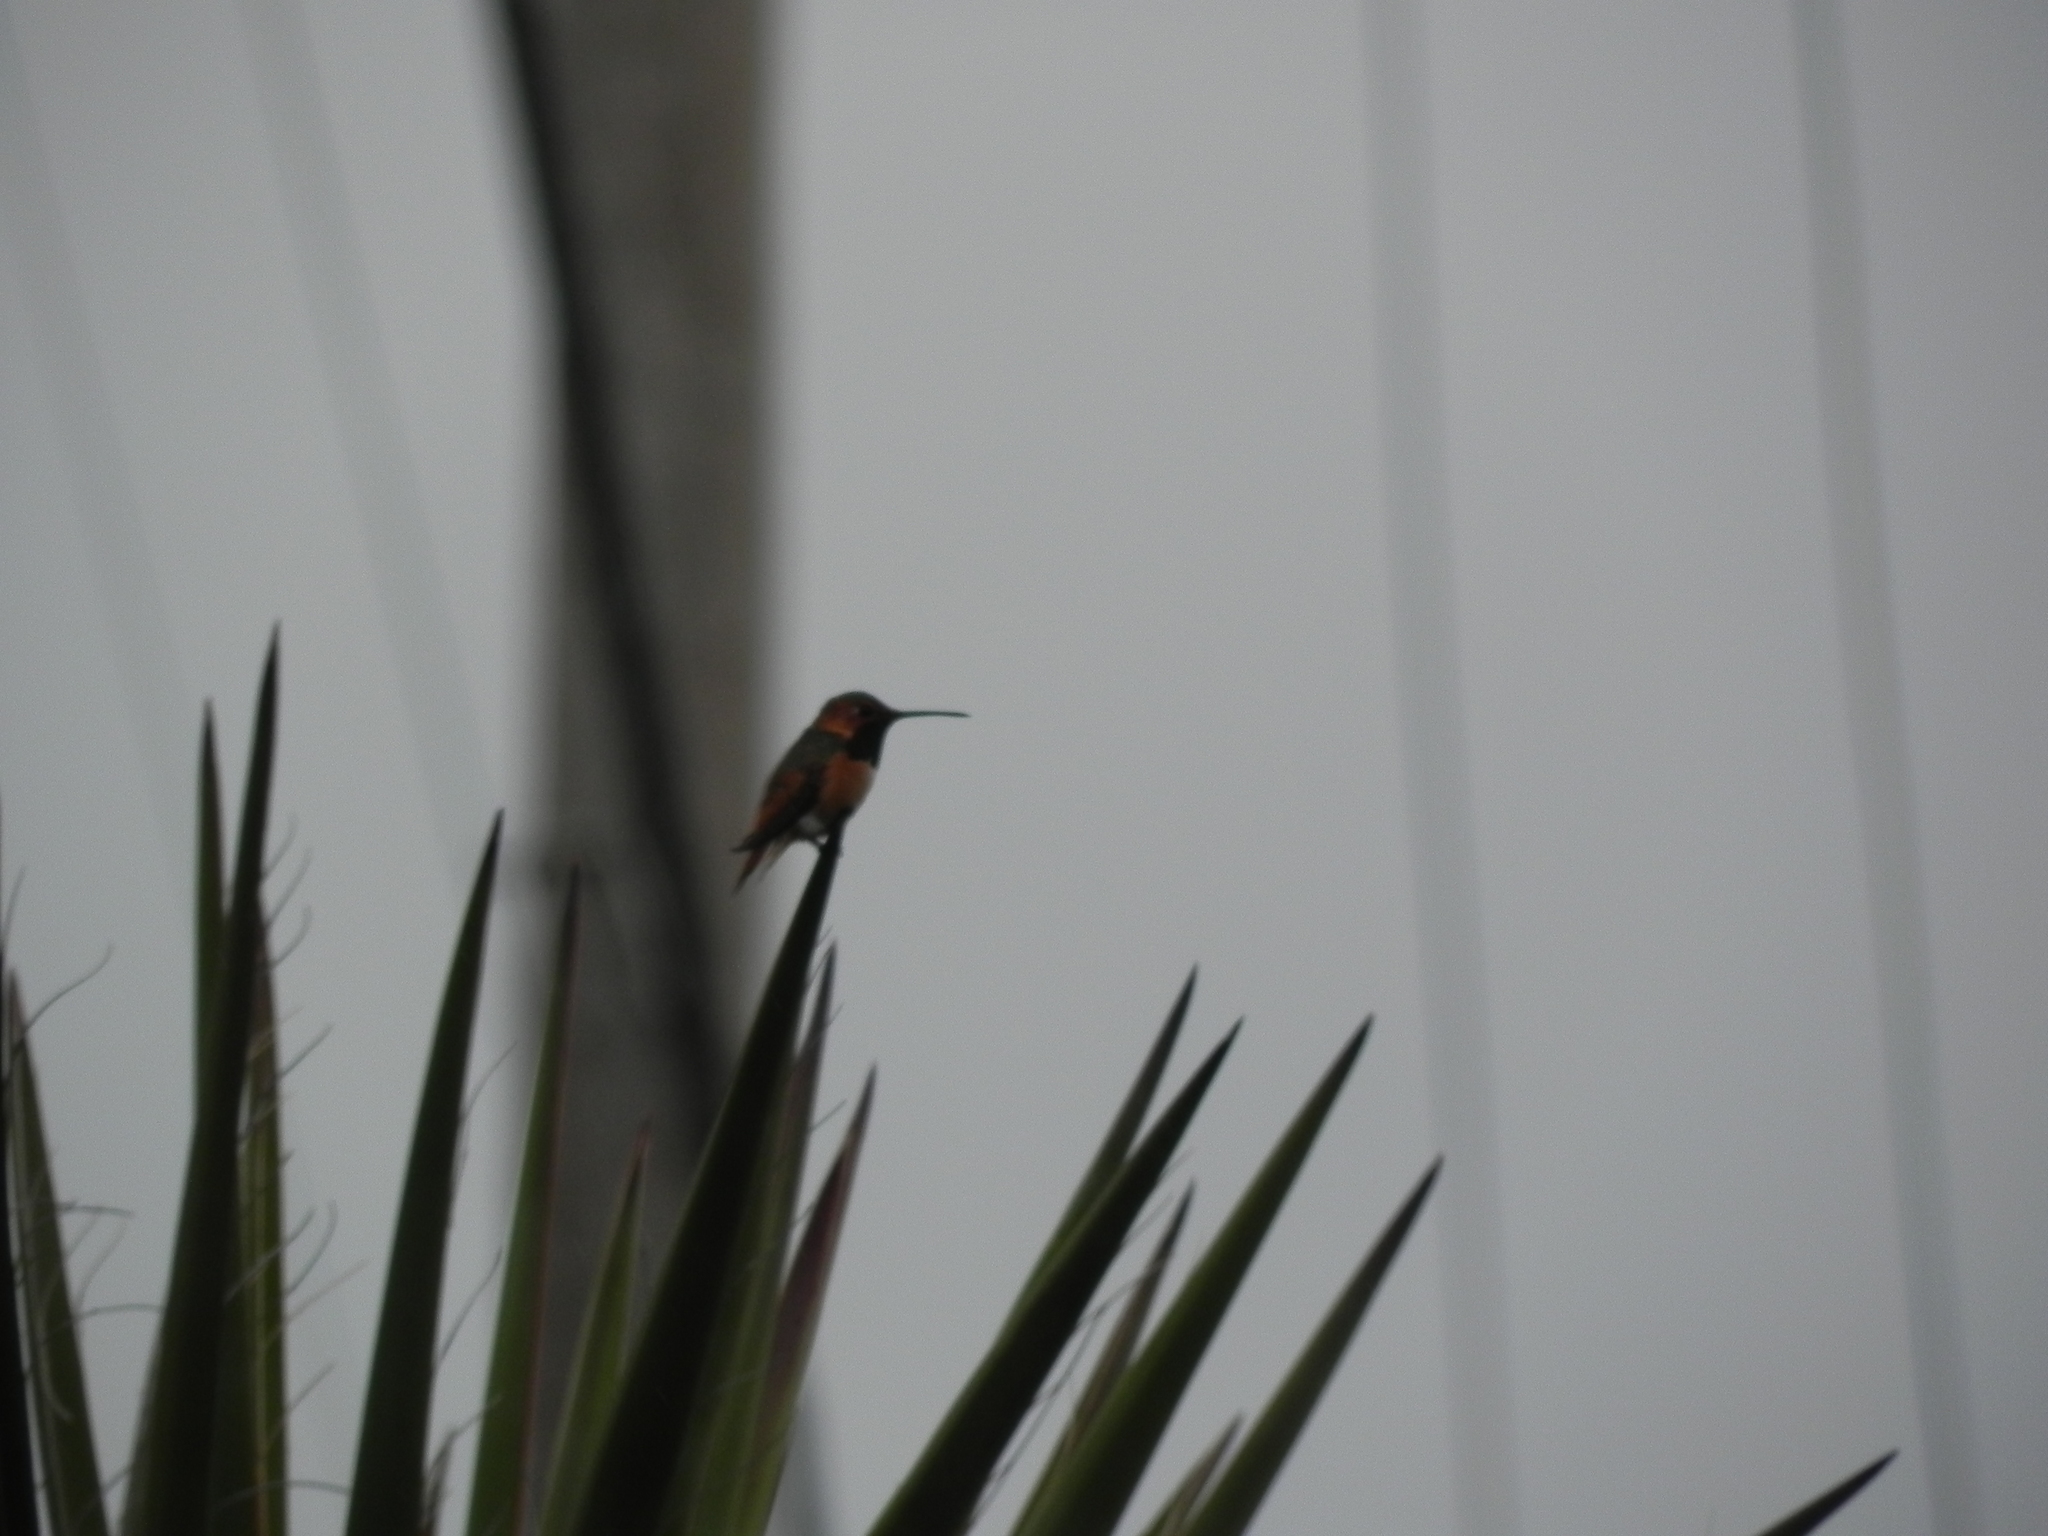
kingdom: Animalia
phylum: Chordata
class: Aves
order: Apodiformes
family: Trochilidae
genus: Selasphorus
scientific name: Selasphorus sasin
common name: Allen's hummingbird
